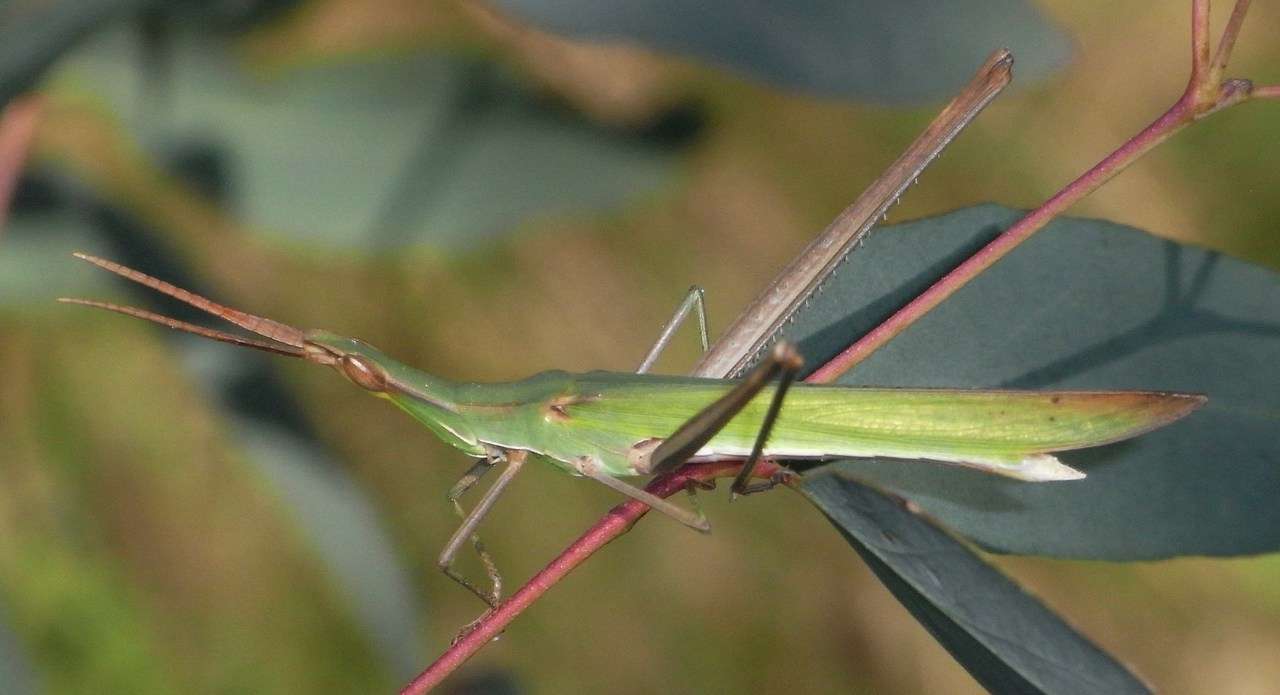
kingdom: Animalia
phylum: Arthropoda
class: Insecta
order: Orthoptera
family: Acrididae
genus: Acrida
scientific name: Acrida conica
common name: Giant green slantface
